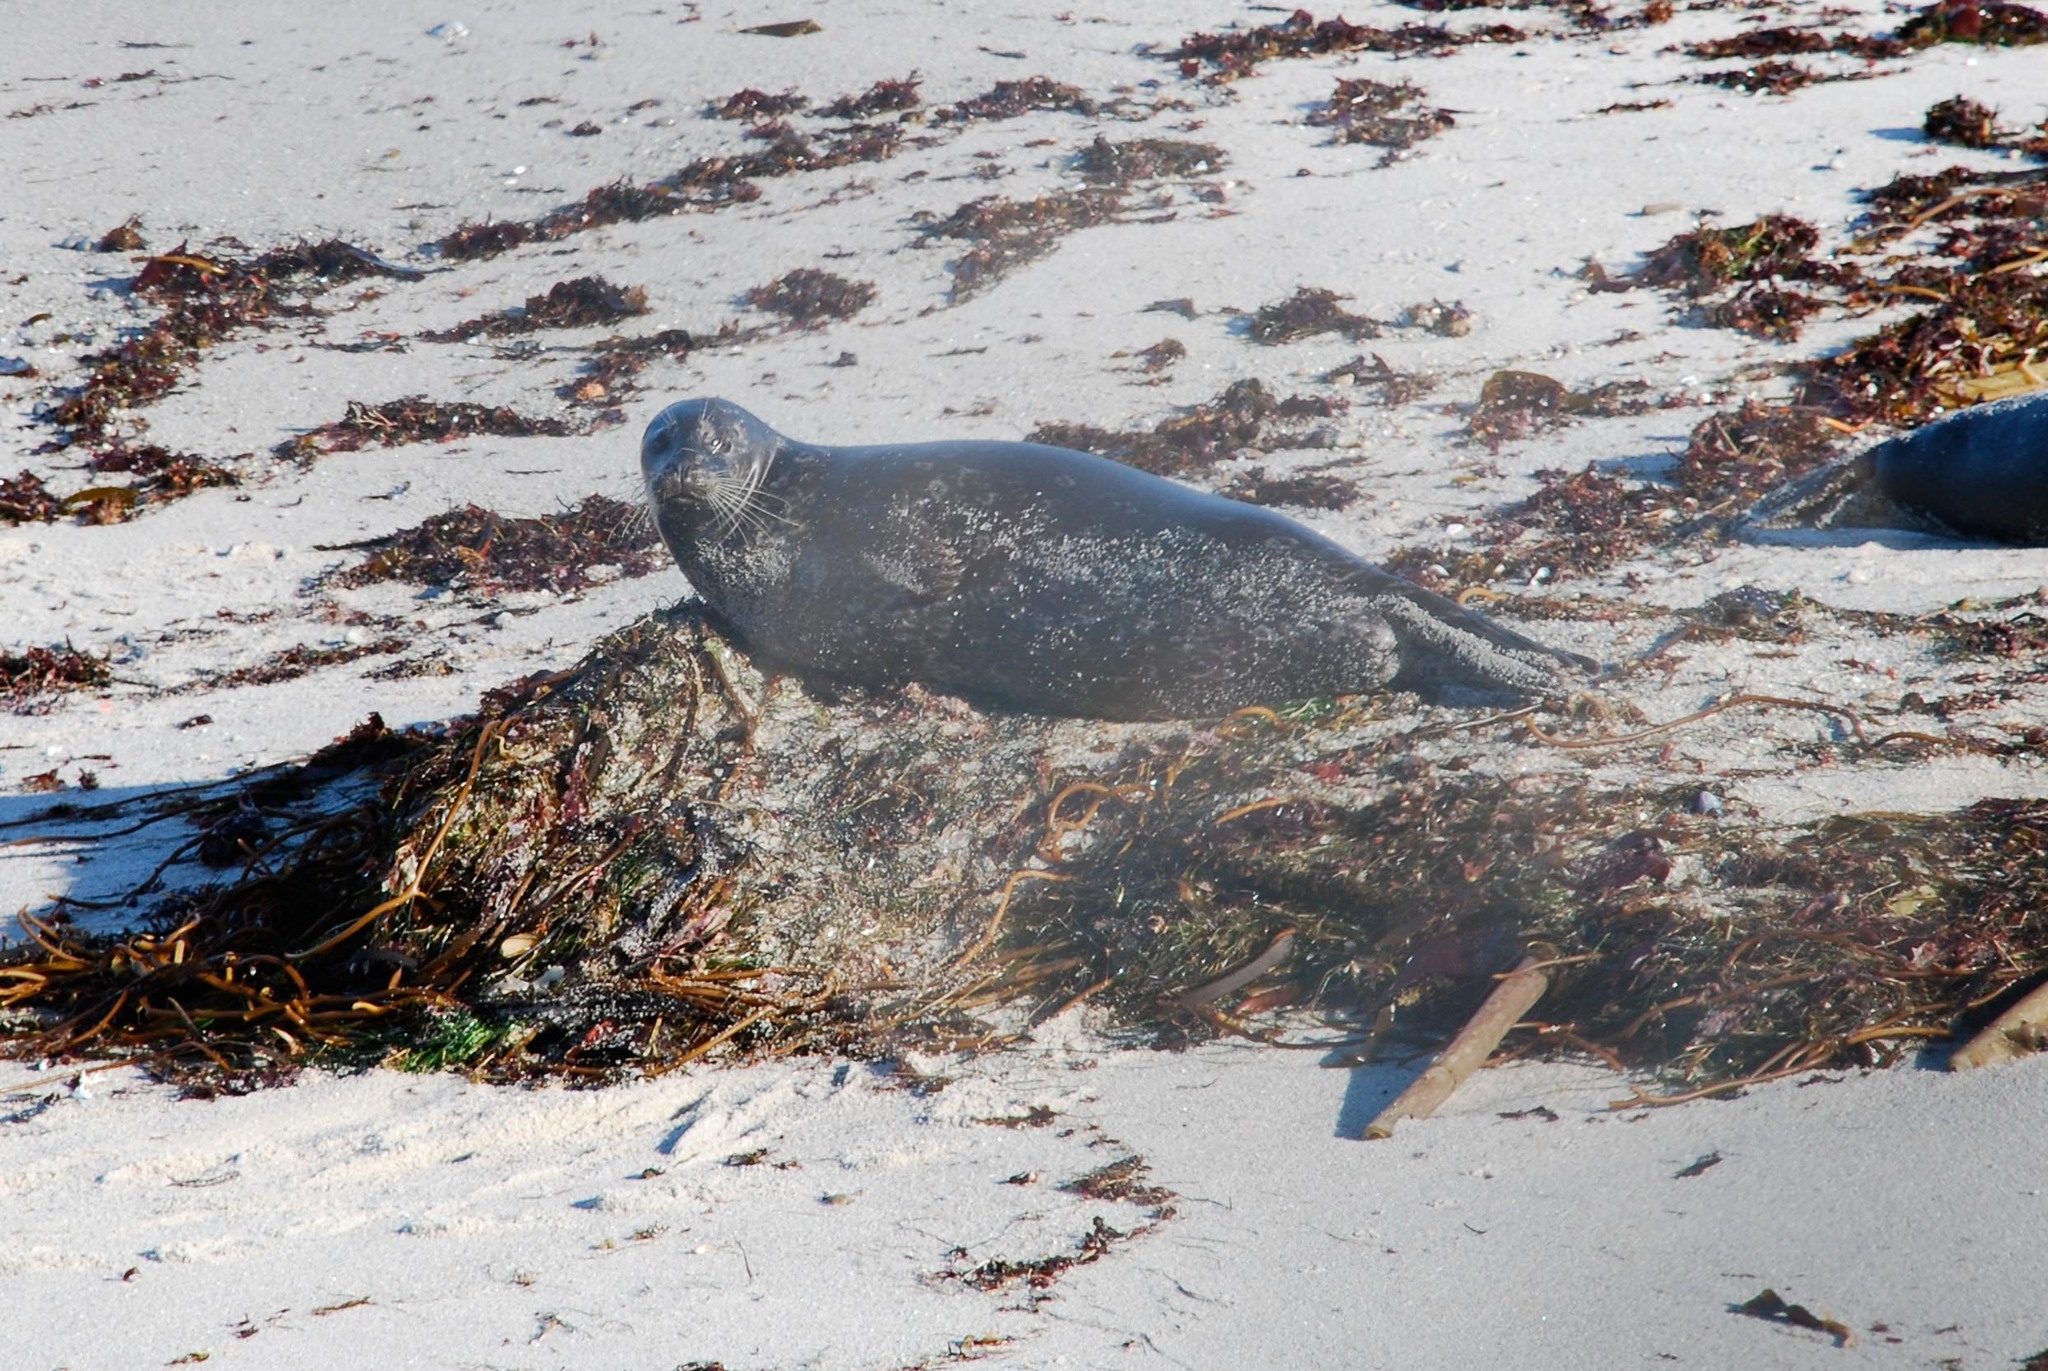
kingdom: Animalia
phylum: Chordata
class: Mammalia
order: Carnivora
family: Phocidae
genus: Phoca
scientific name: Phoca vitulina
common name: Harbor seal
